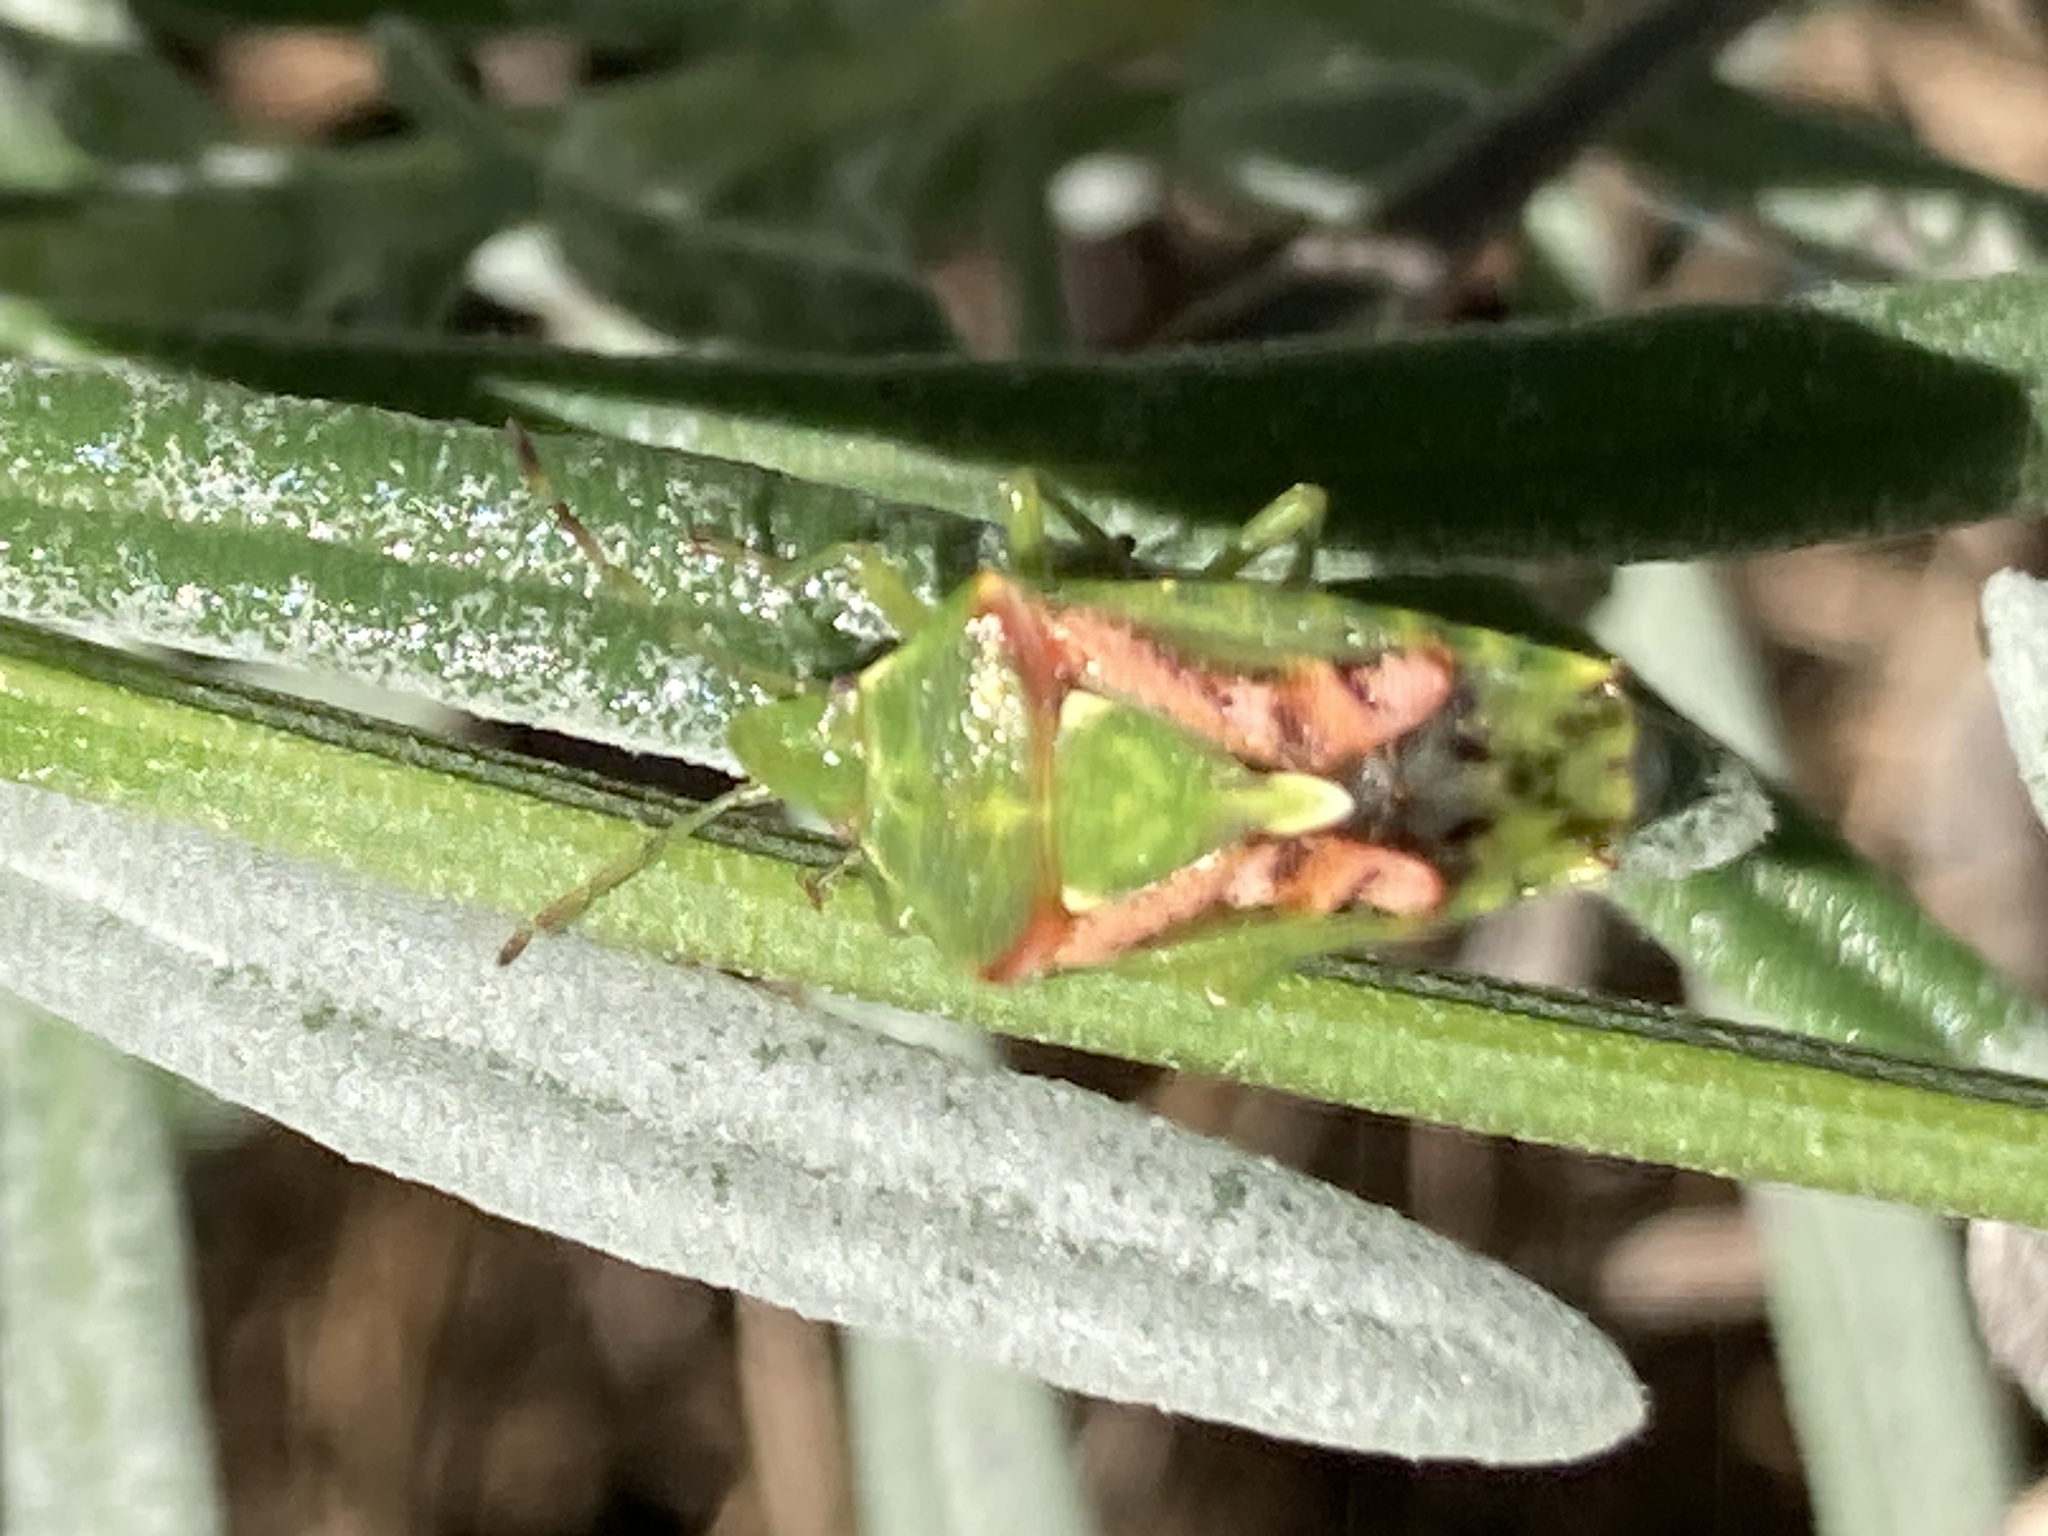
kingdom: Animalia
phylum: Arthropoda
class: Insecta
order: Hemiptera
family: Acanthosomatidae
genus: Cyphostethus
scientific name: Cyphostethus tristriatus
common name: Juniper shieldbug
